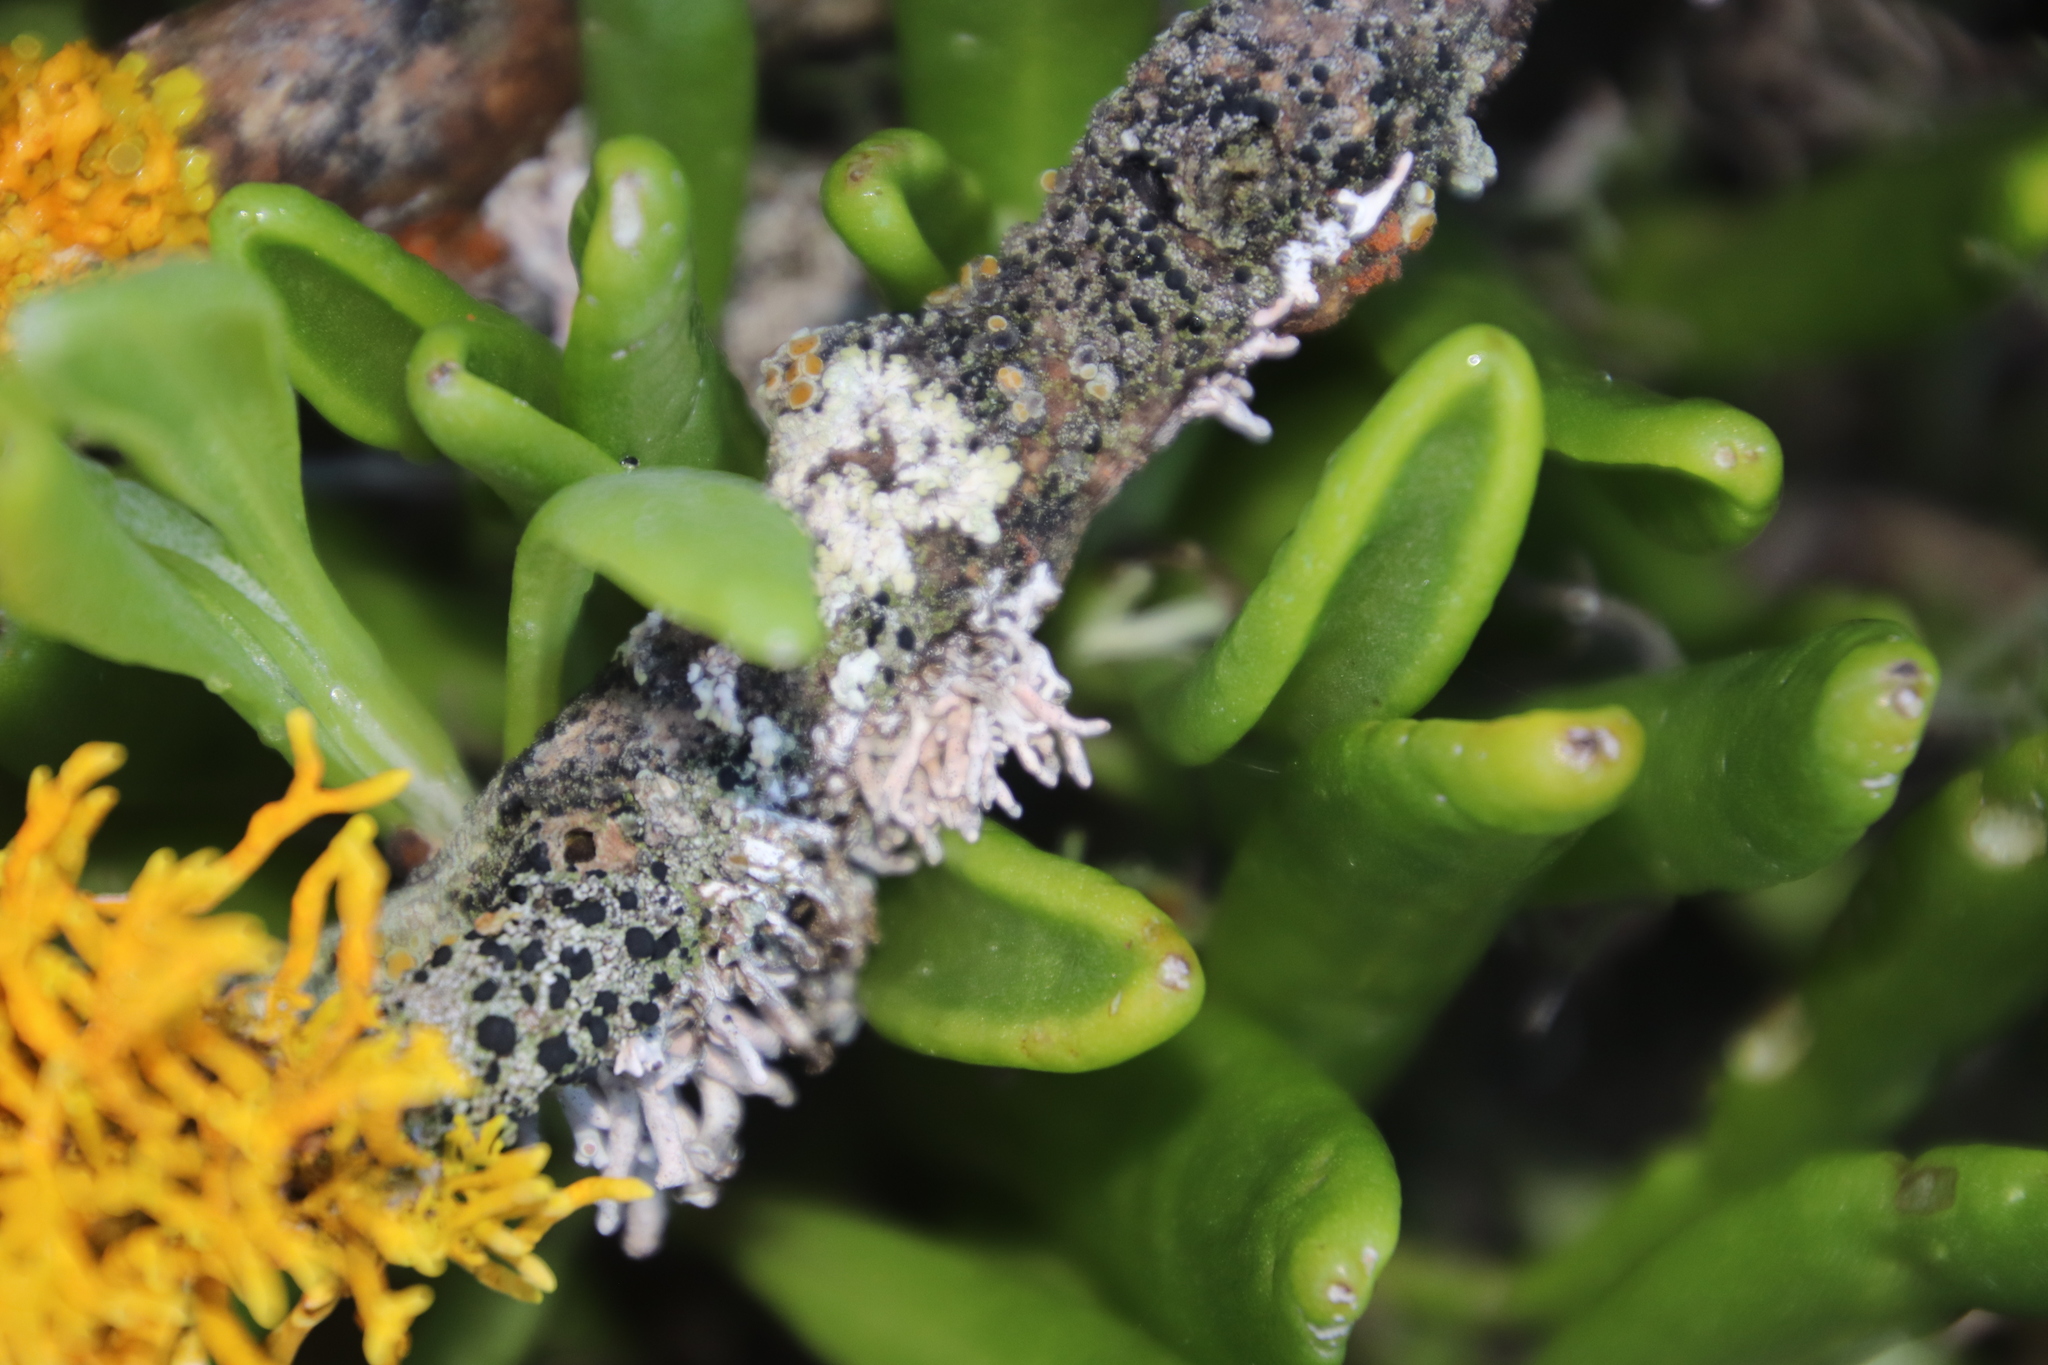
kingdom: Fungi
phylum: Ascomycota
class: Arthoniomycetes
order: Arthoniales
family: Opegraphaceae
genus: Combea
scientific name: Combea mollusca
